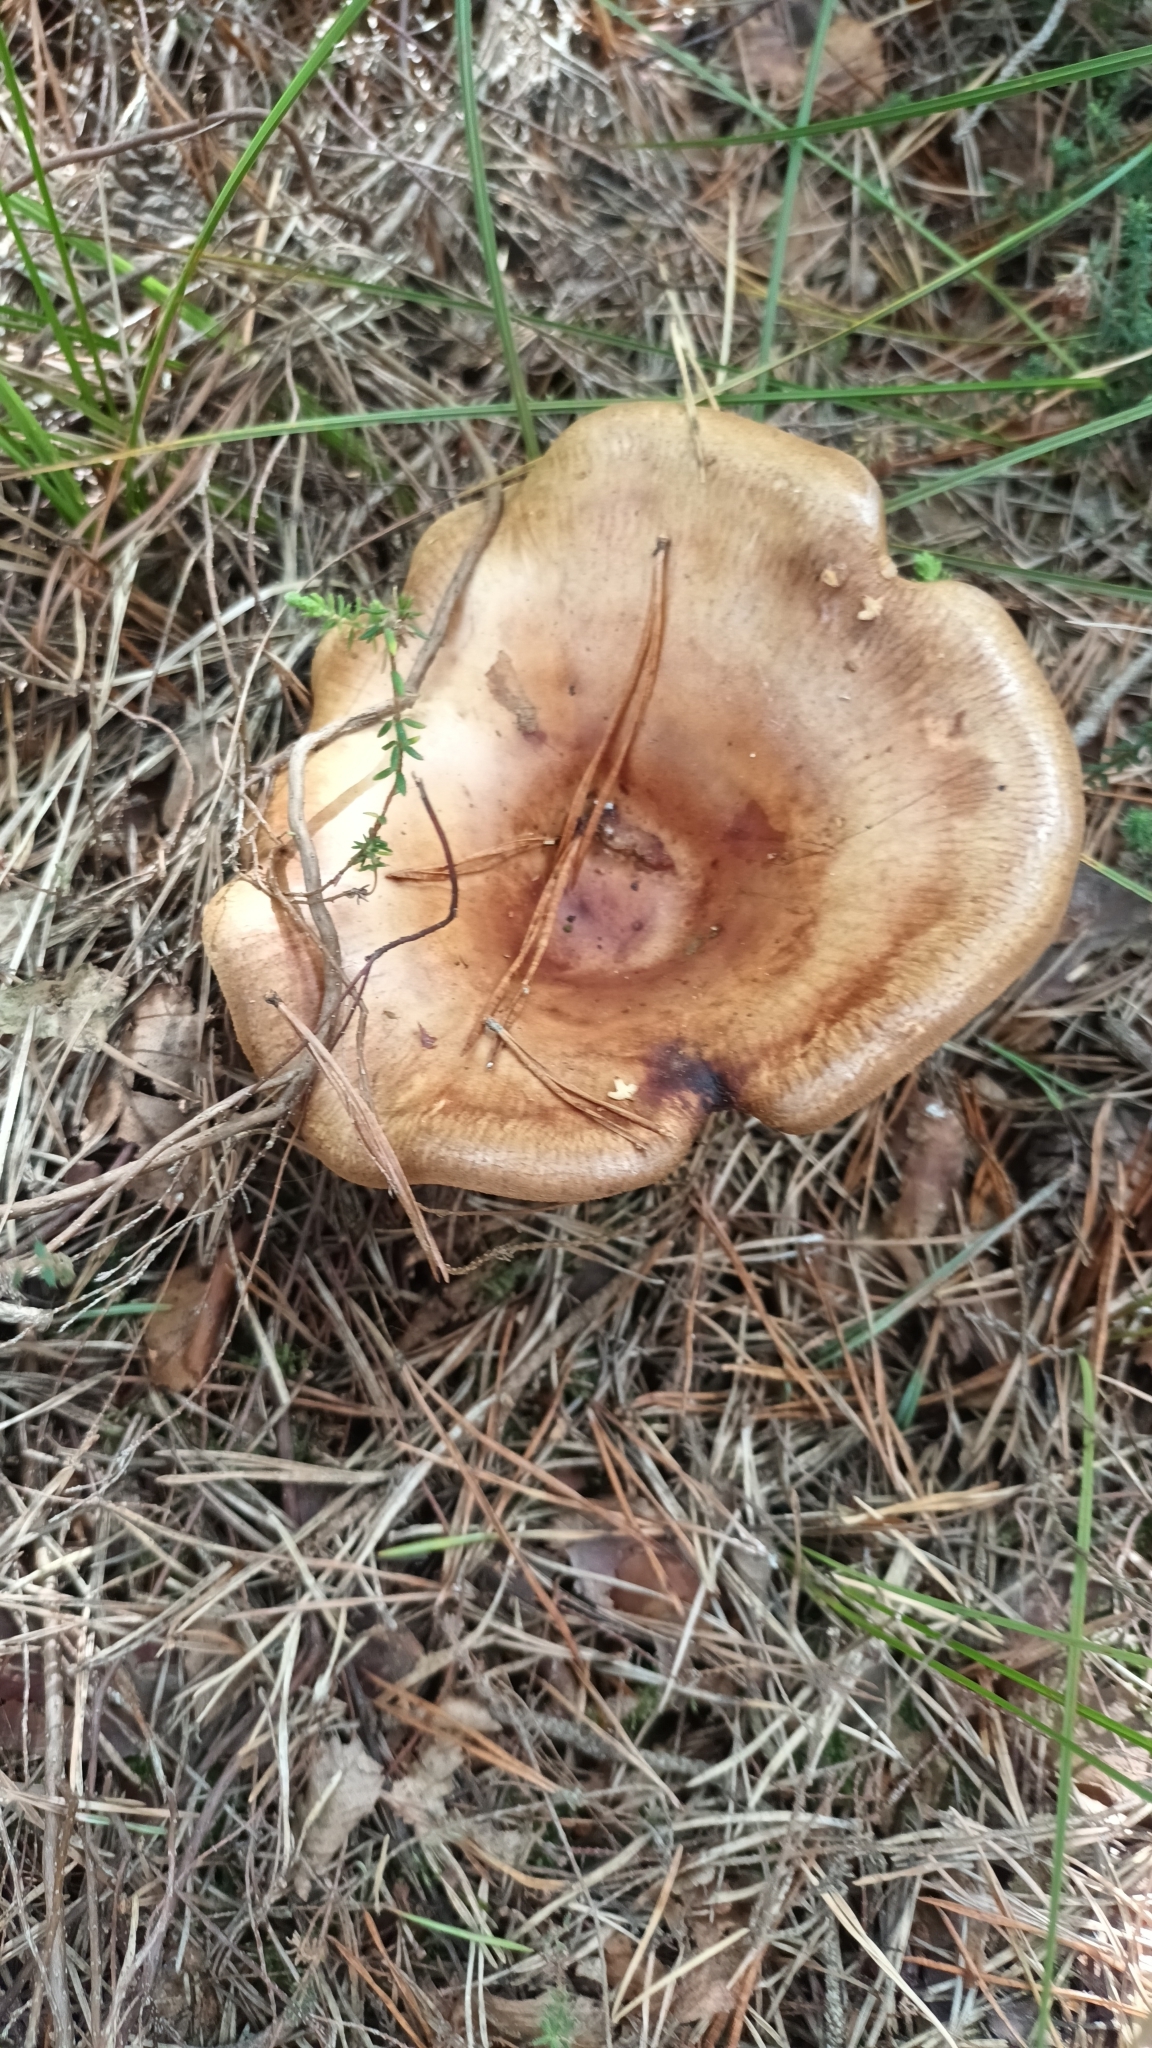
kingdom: Fungi
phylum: Basidiomycota
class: Agaricomycetes
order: Boletales
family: Paxillaceae
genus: Paxillus
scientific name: Paxillus involutus
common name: Brown roll rim
